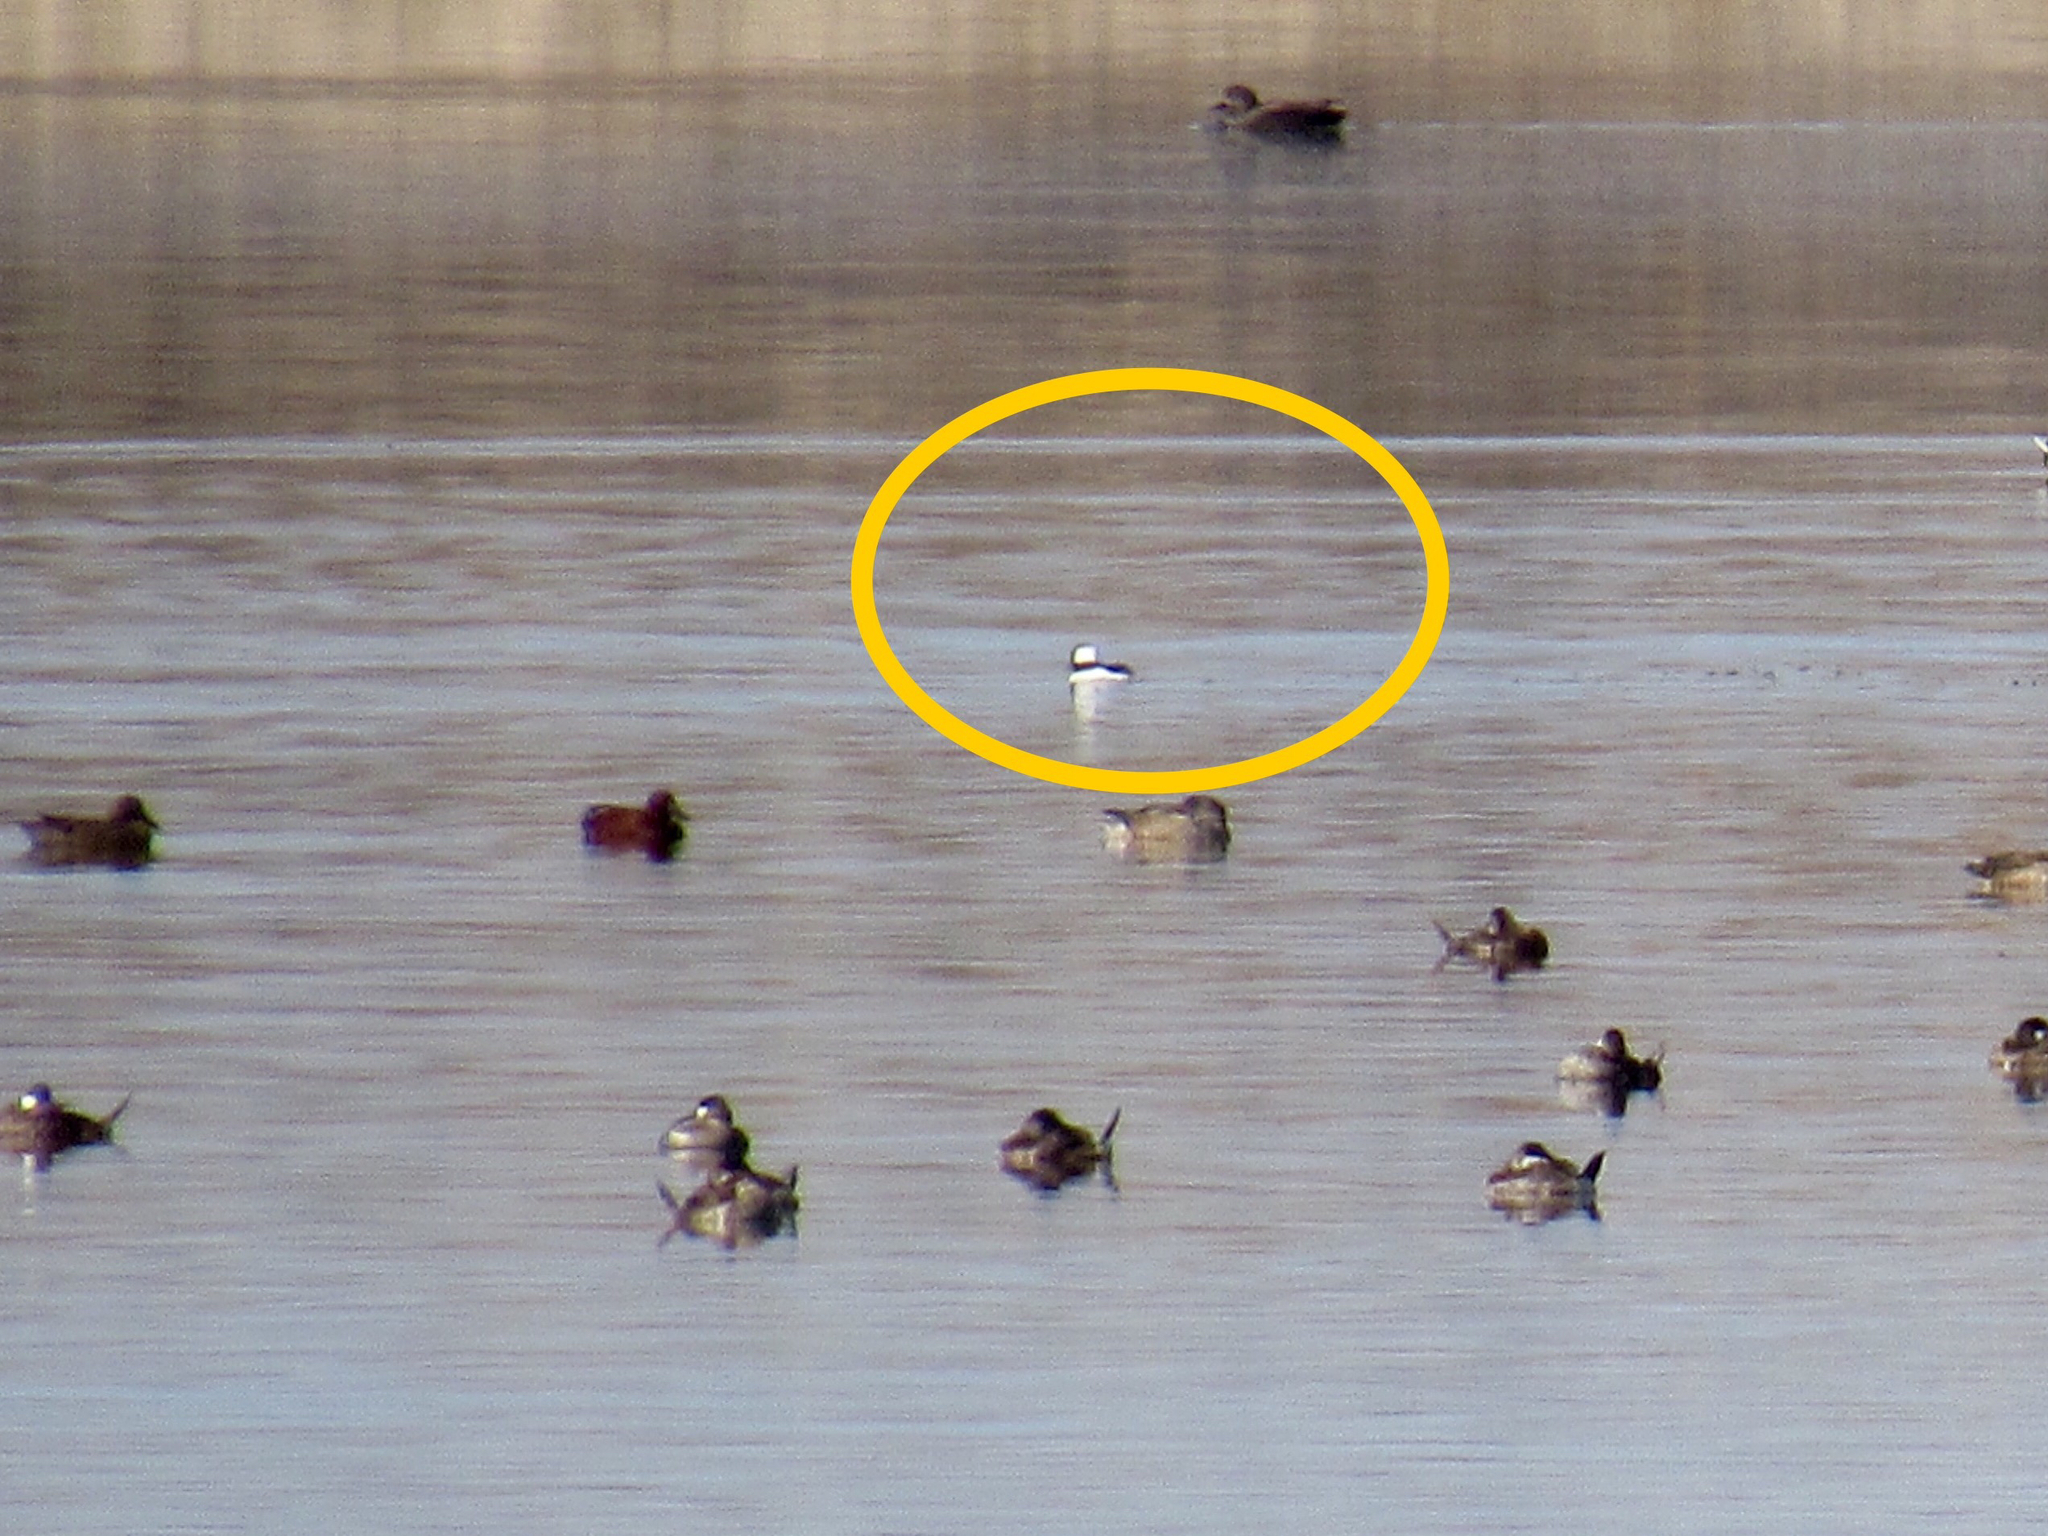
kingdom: Animalia
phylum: Chordata
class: Aves
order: Anseriformes
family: Anatidae
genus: Bucephala
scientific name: Bucephala albeola
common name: Bufflehead
